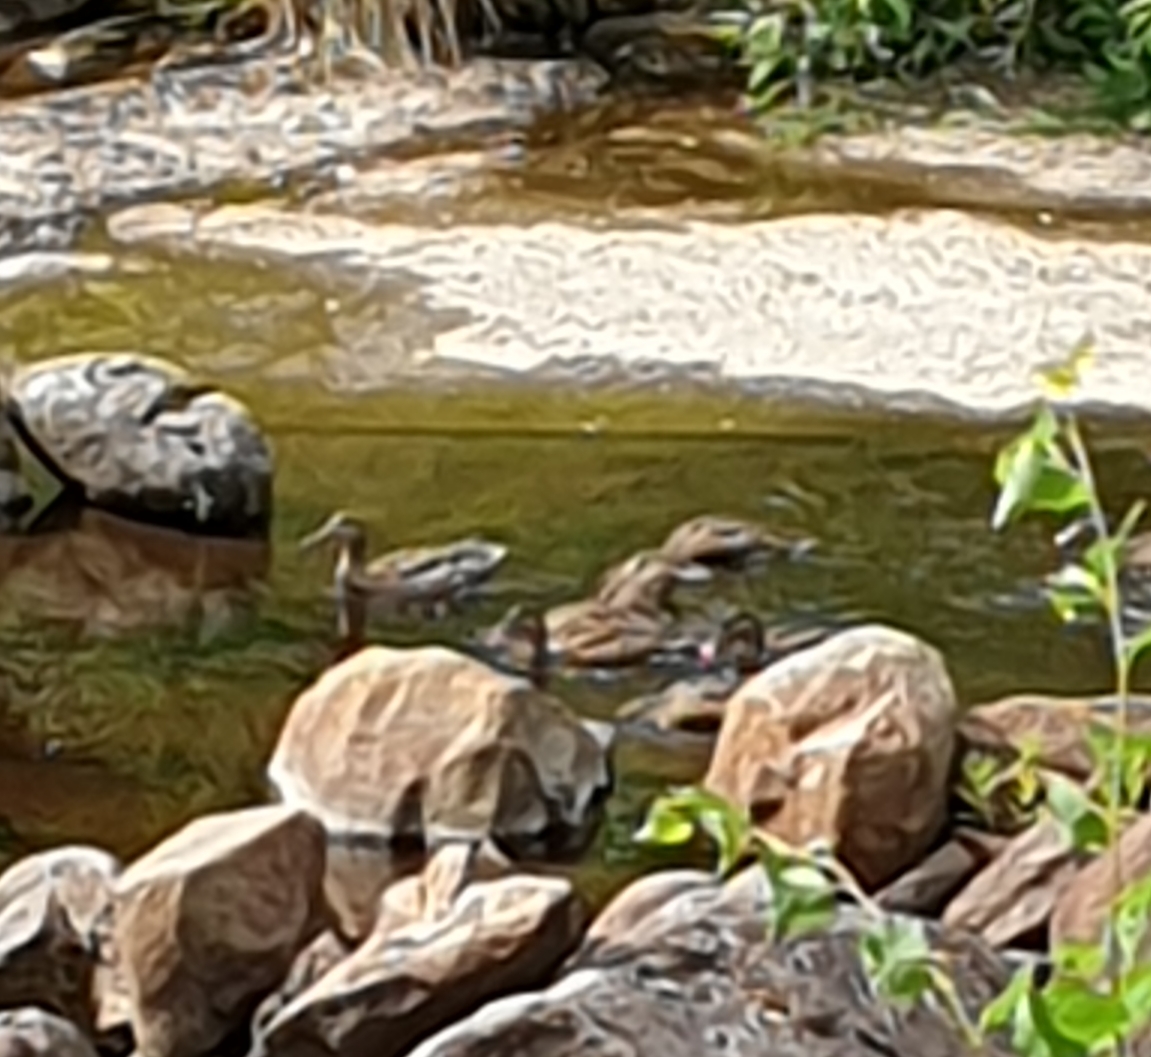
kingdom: Animalia
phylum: Chordata
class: Aves
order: Anseriformes
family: Anatidae
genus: Anas
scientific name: Anas platyrhynchos
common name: Mallard
